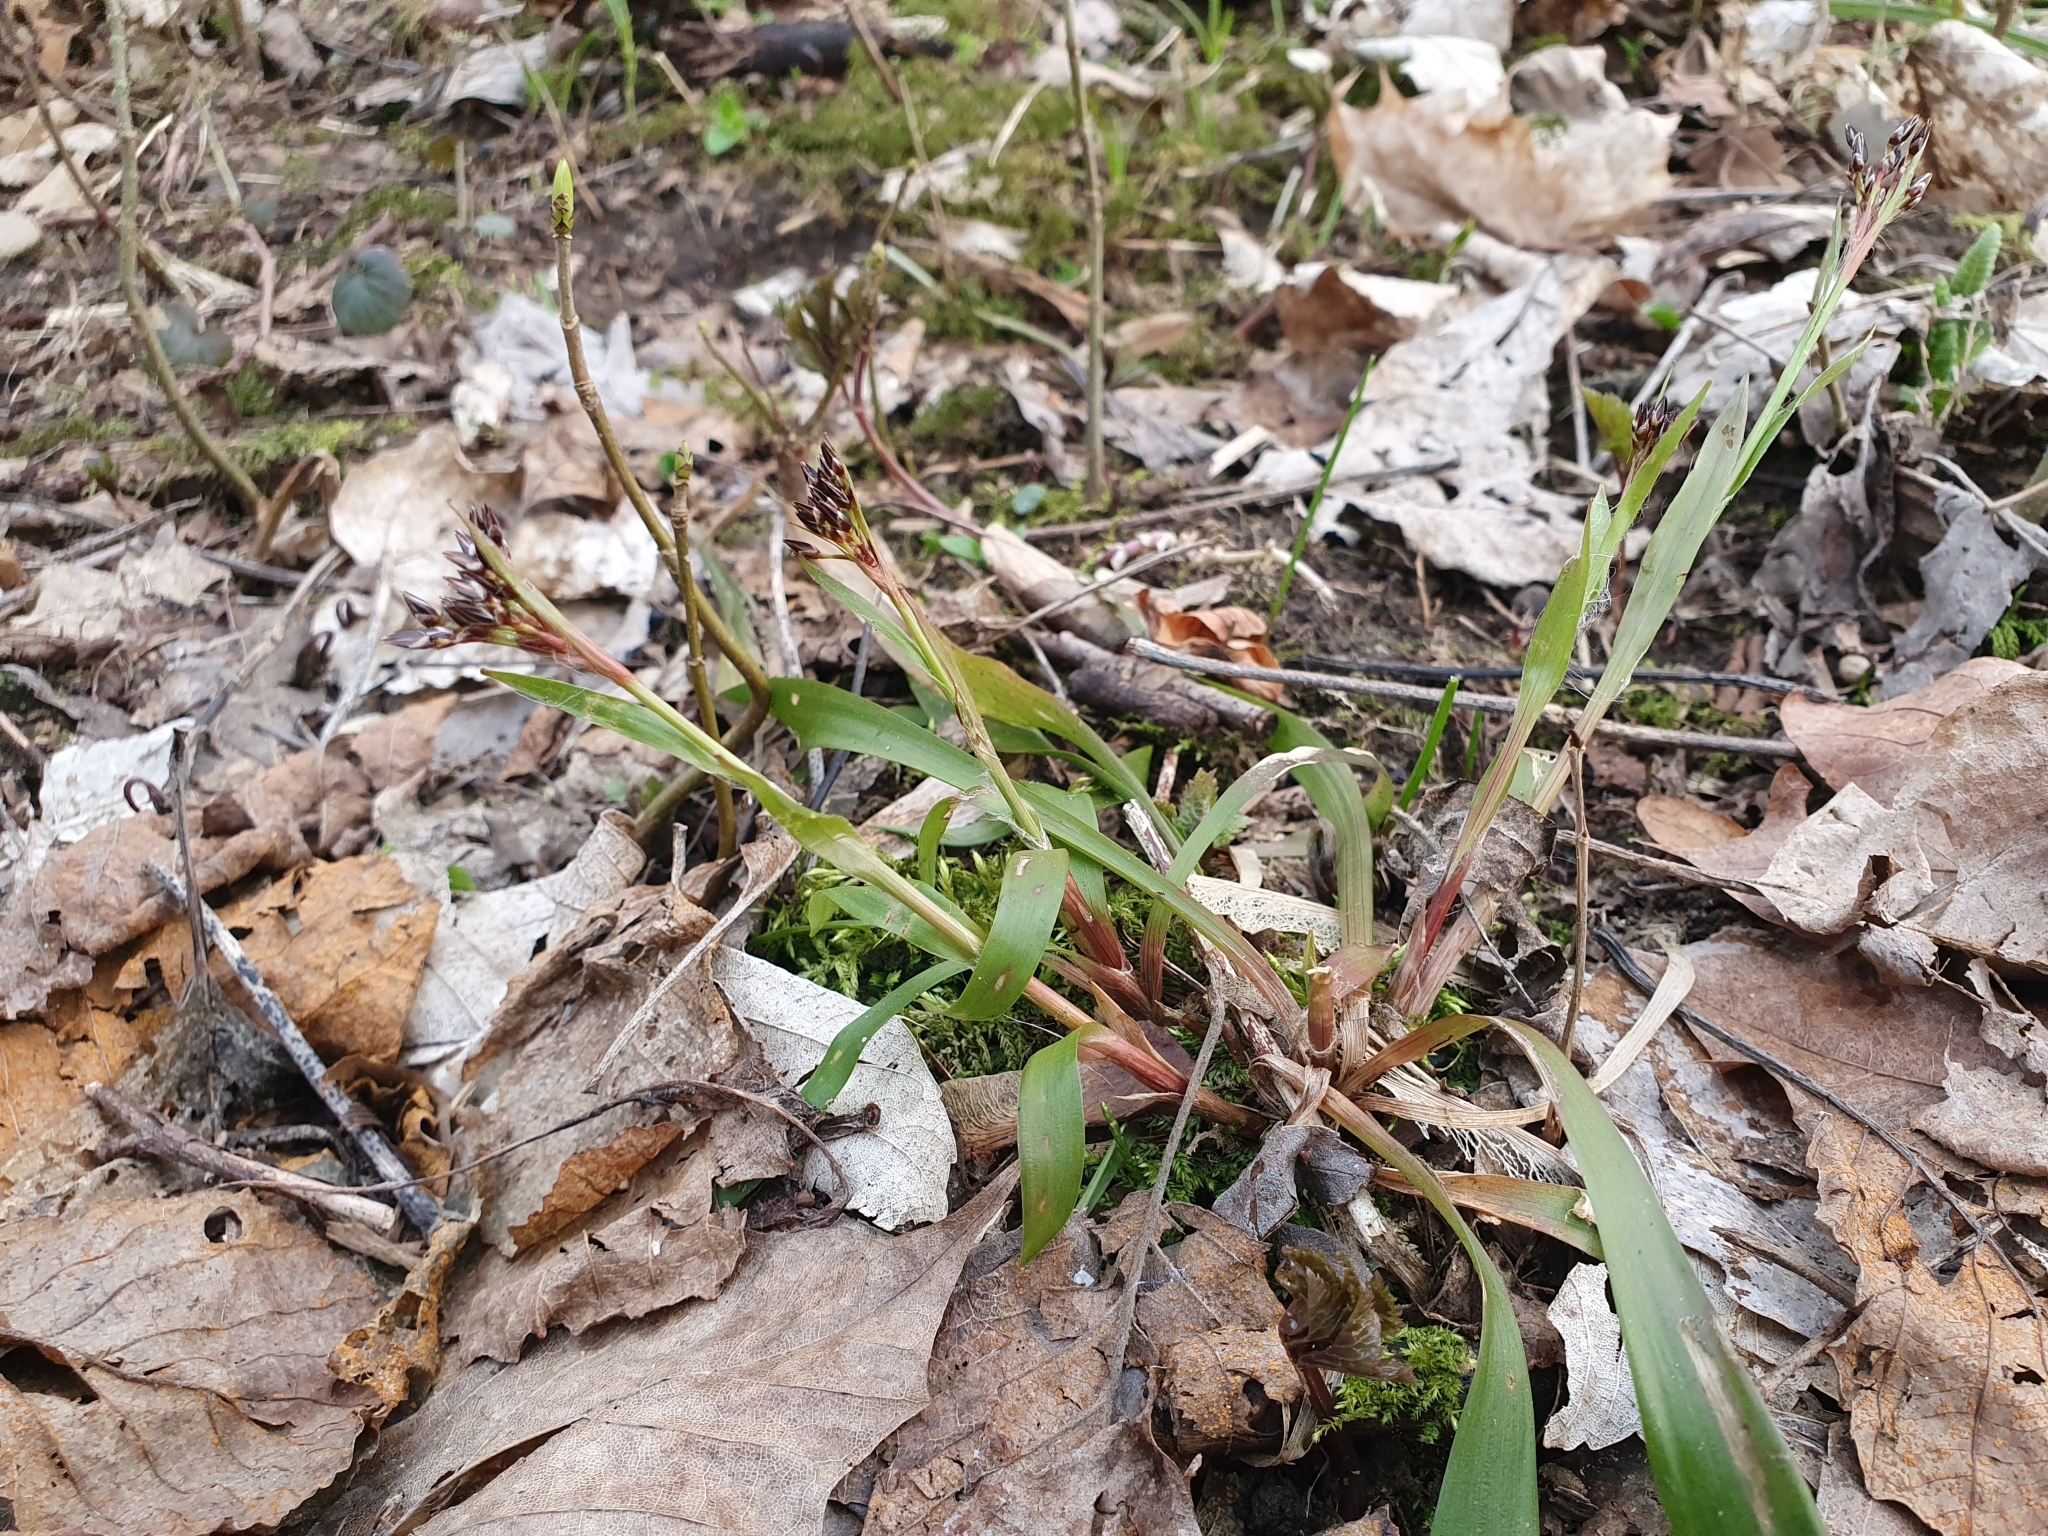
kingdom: Plantae
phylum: Tracheophyta
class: Liliopsida
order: Poales
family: Juncaceae
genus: Luzula
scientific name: Luzula pilosa
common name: Hairy wood-rush
